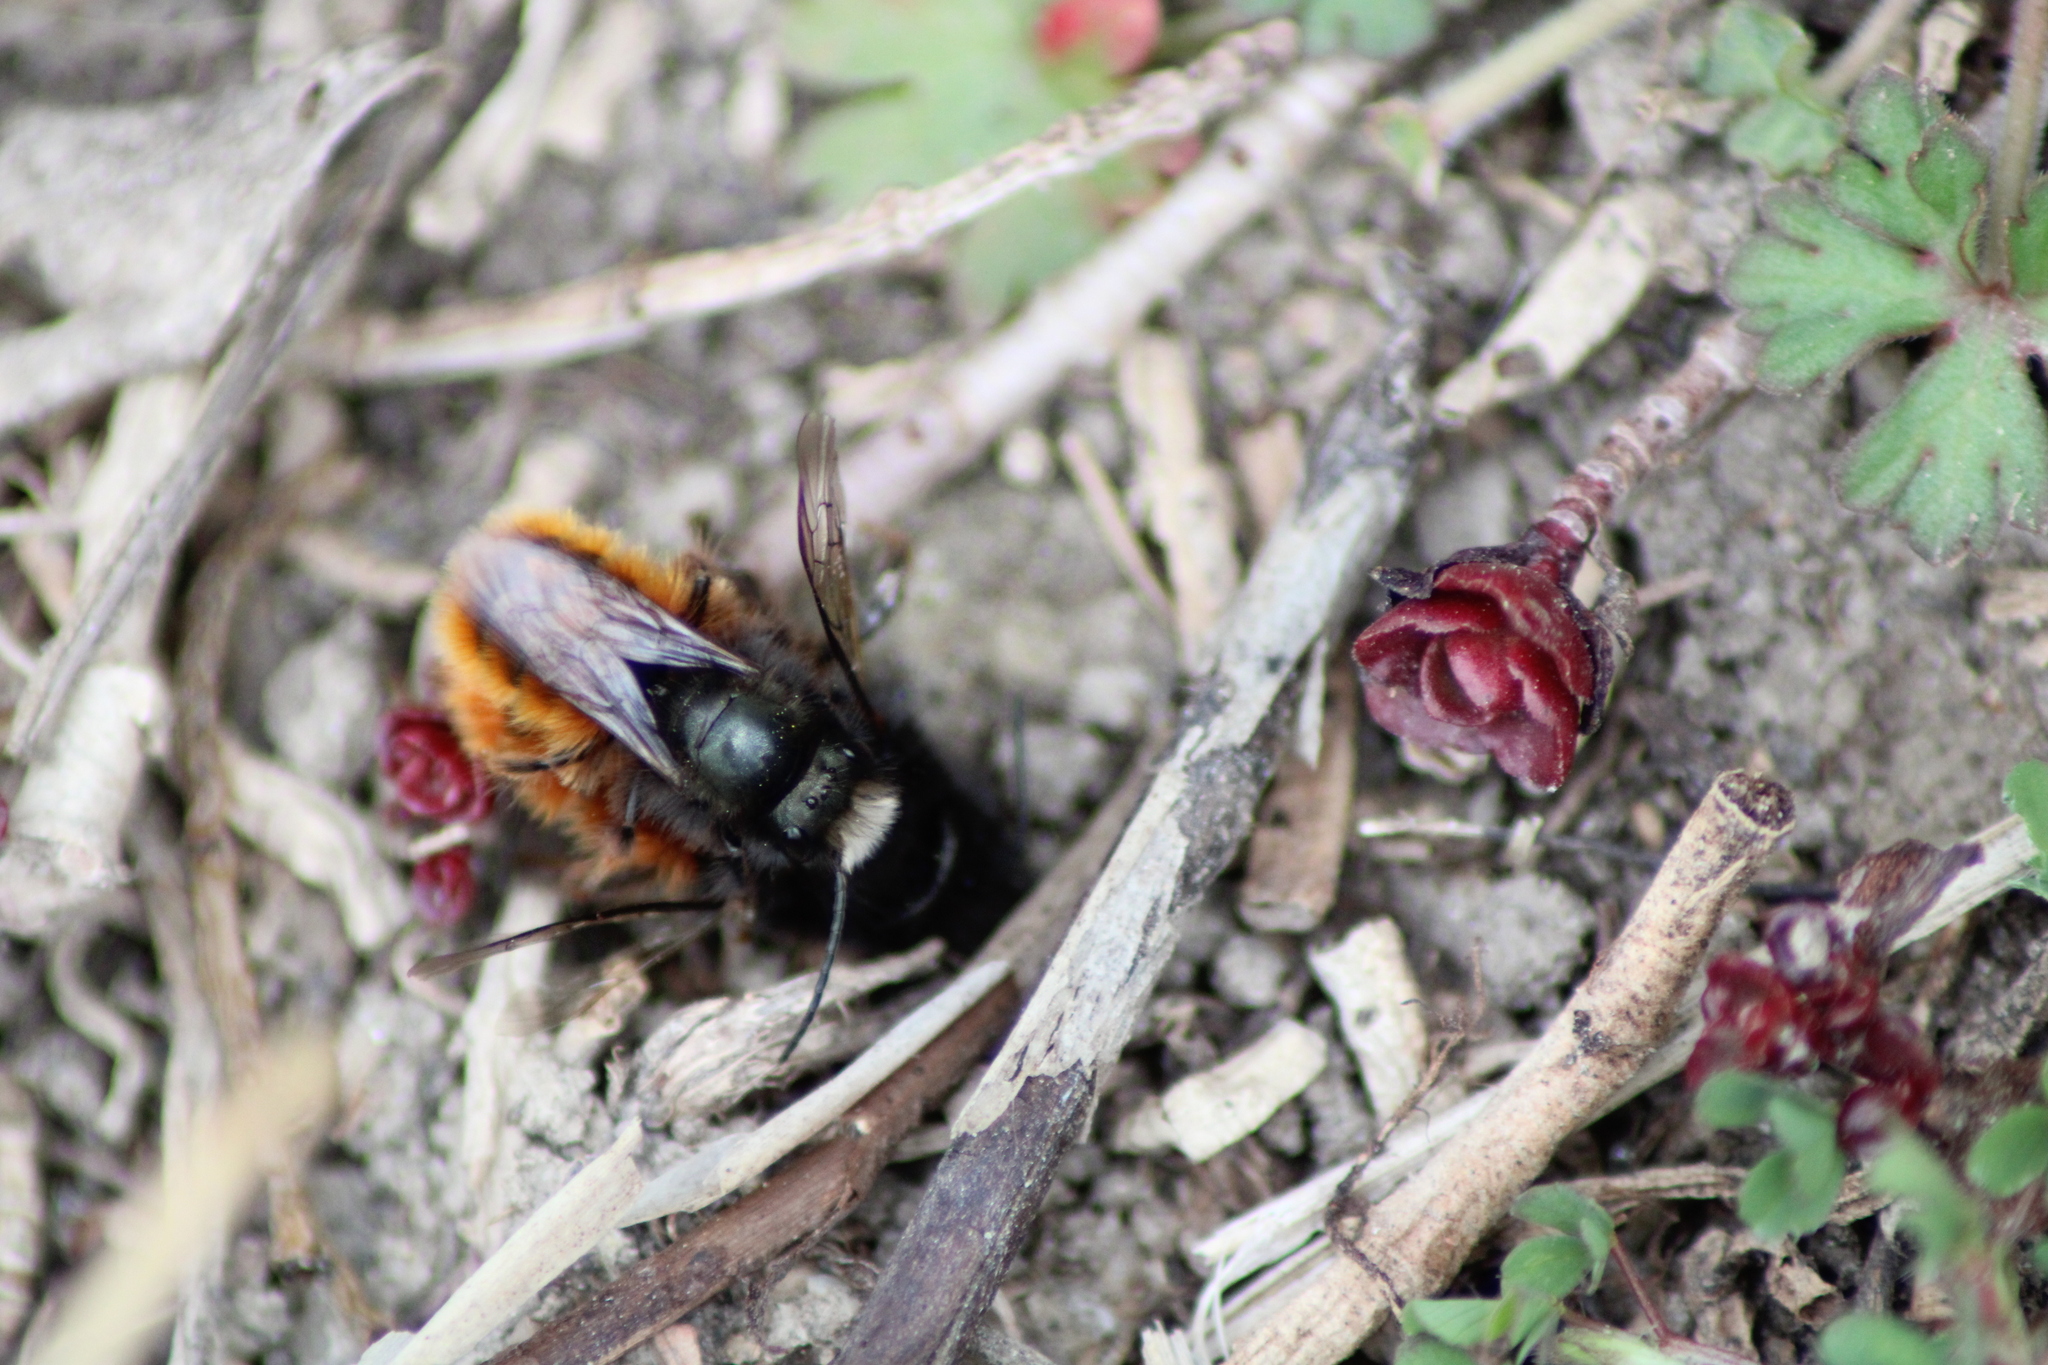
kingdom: Animalia
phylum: Arthropoda
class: Insecta
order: Hymenoptera
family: Megachilidae
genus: Osmia
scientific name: Osmia cornuta
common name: Mason bee
